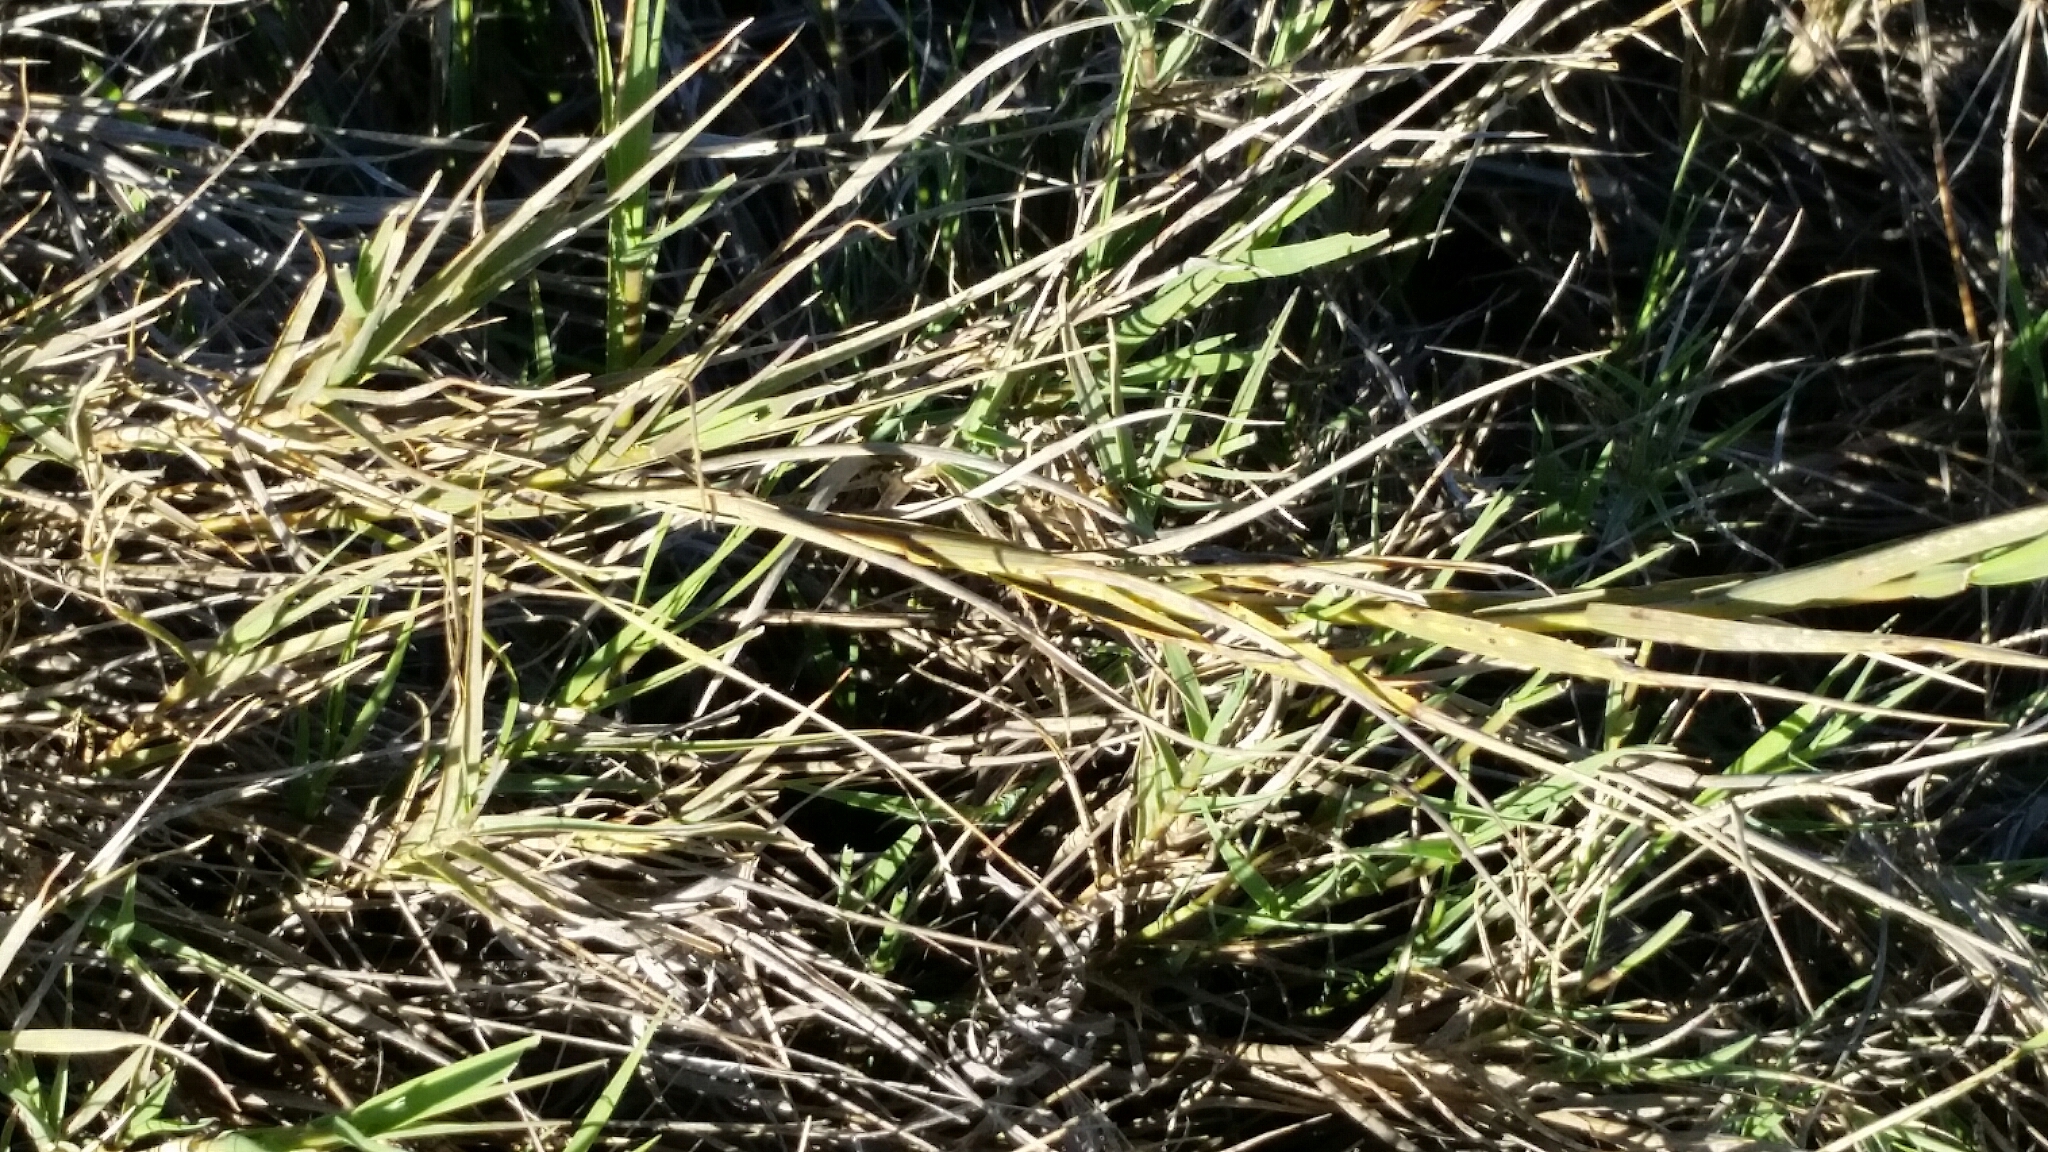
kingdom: Plantae
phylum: Tracheophyta
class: Liliopsida
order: Poales
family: Poaceae
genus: Distichlis
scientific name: Distichlis spicata
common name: Saltgrass
